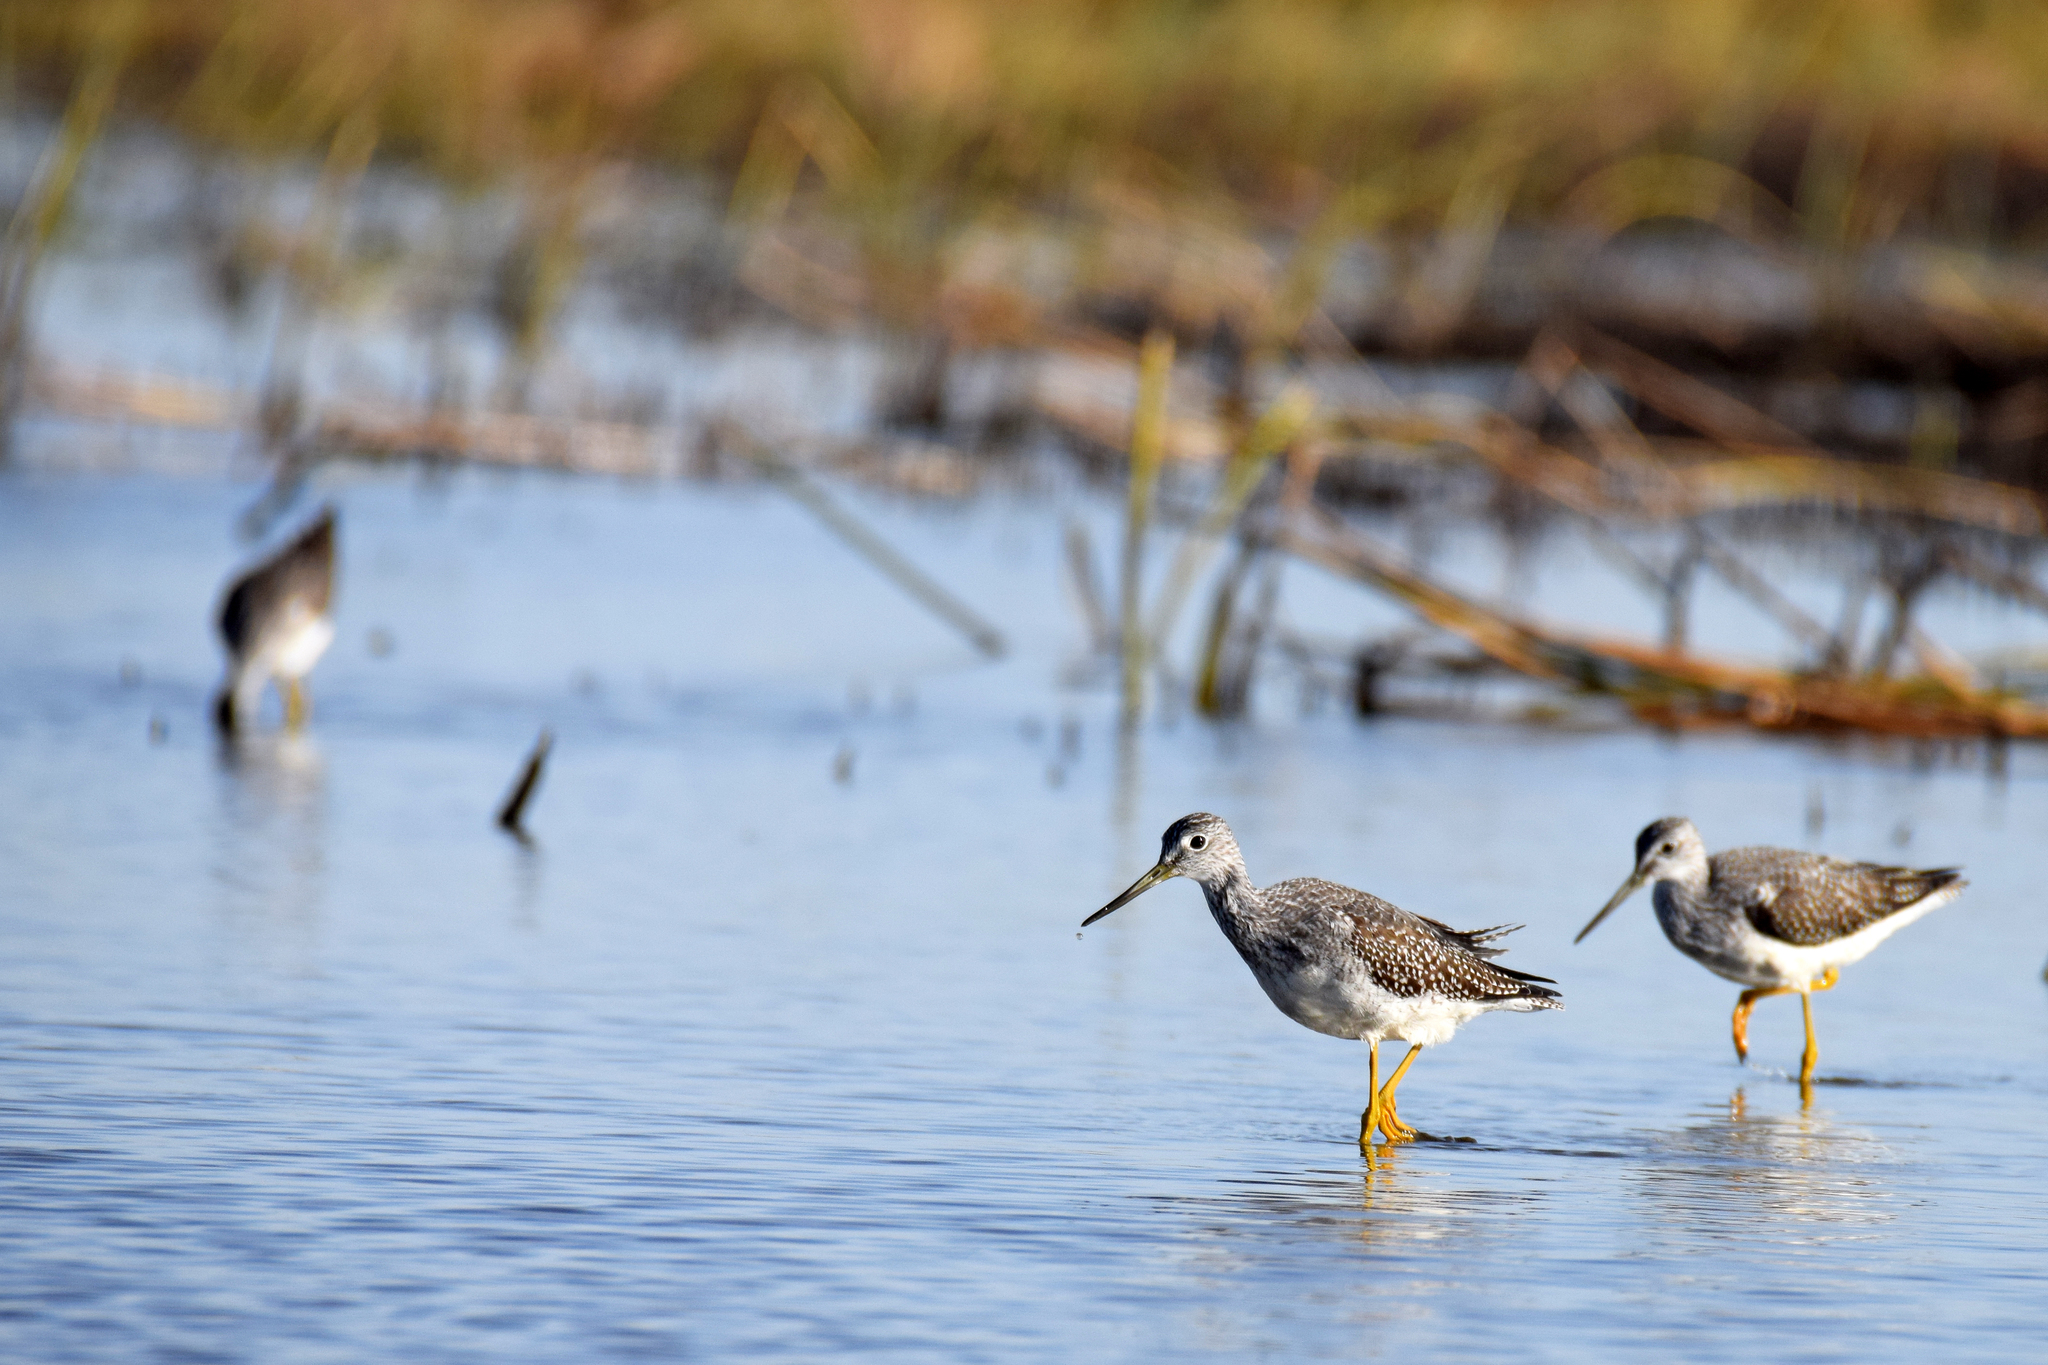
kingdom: Animalia
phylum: Chordata
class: Aves
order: Charadriiformes
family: Scolopacidae
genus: Tringa
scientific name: Tringa melanoleuca
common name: Greater yellowlegs
